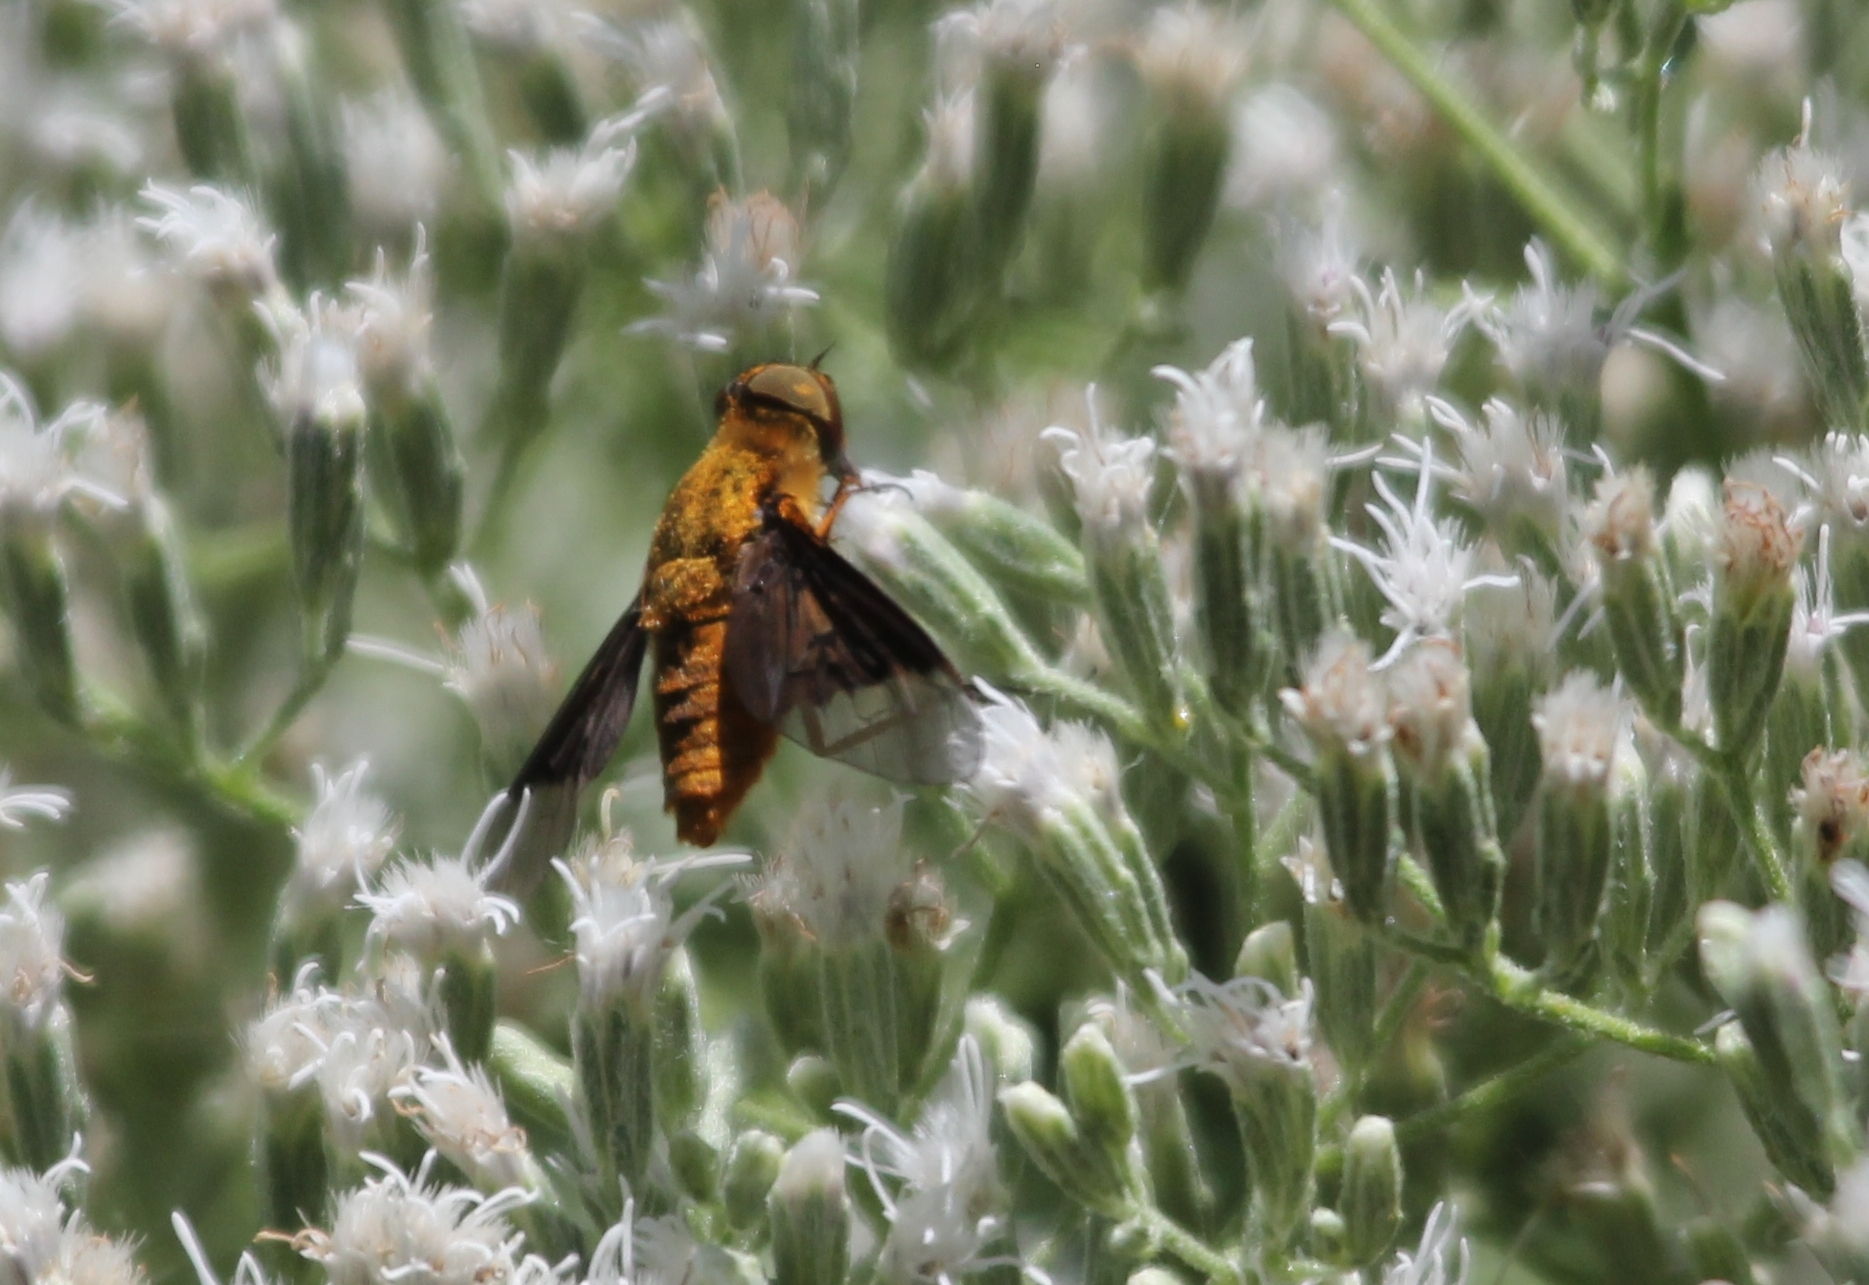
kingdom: Animalia
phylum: Arthropoda
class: Insecta
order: Diptera
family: Bombyliidae
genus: Chrysanthrax
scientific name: Chrysanthrax cypris
